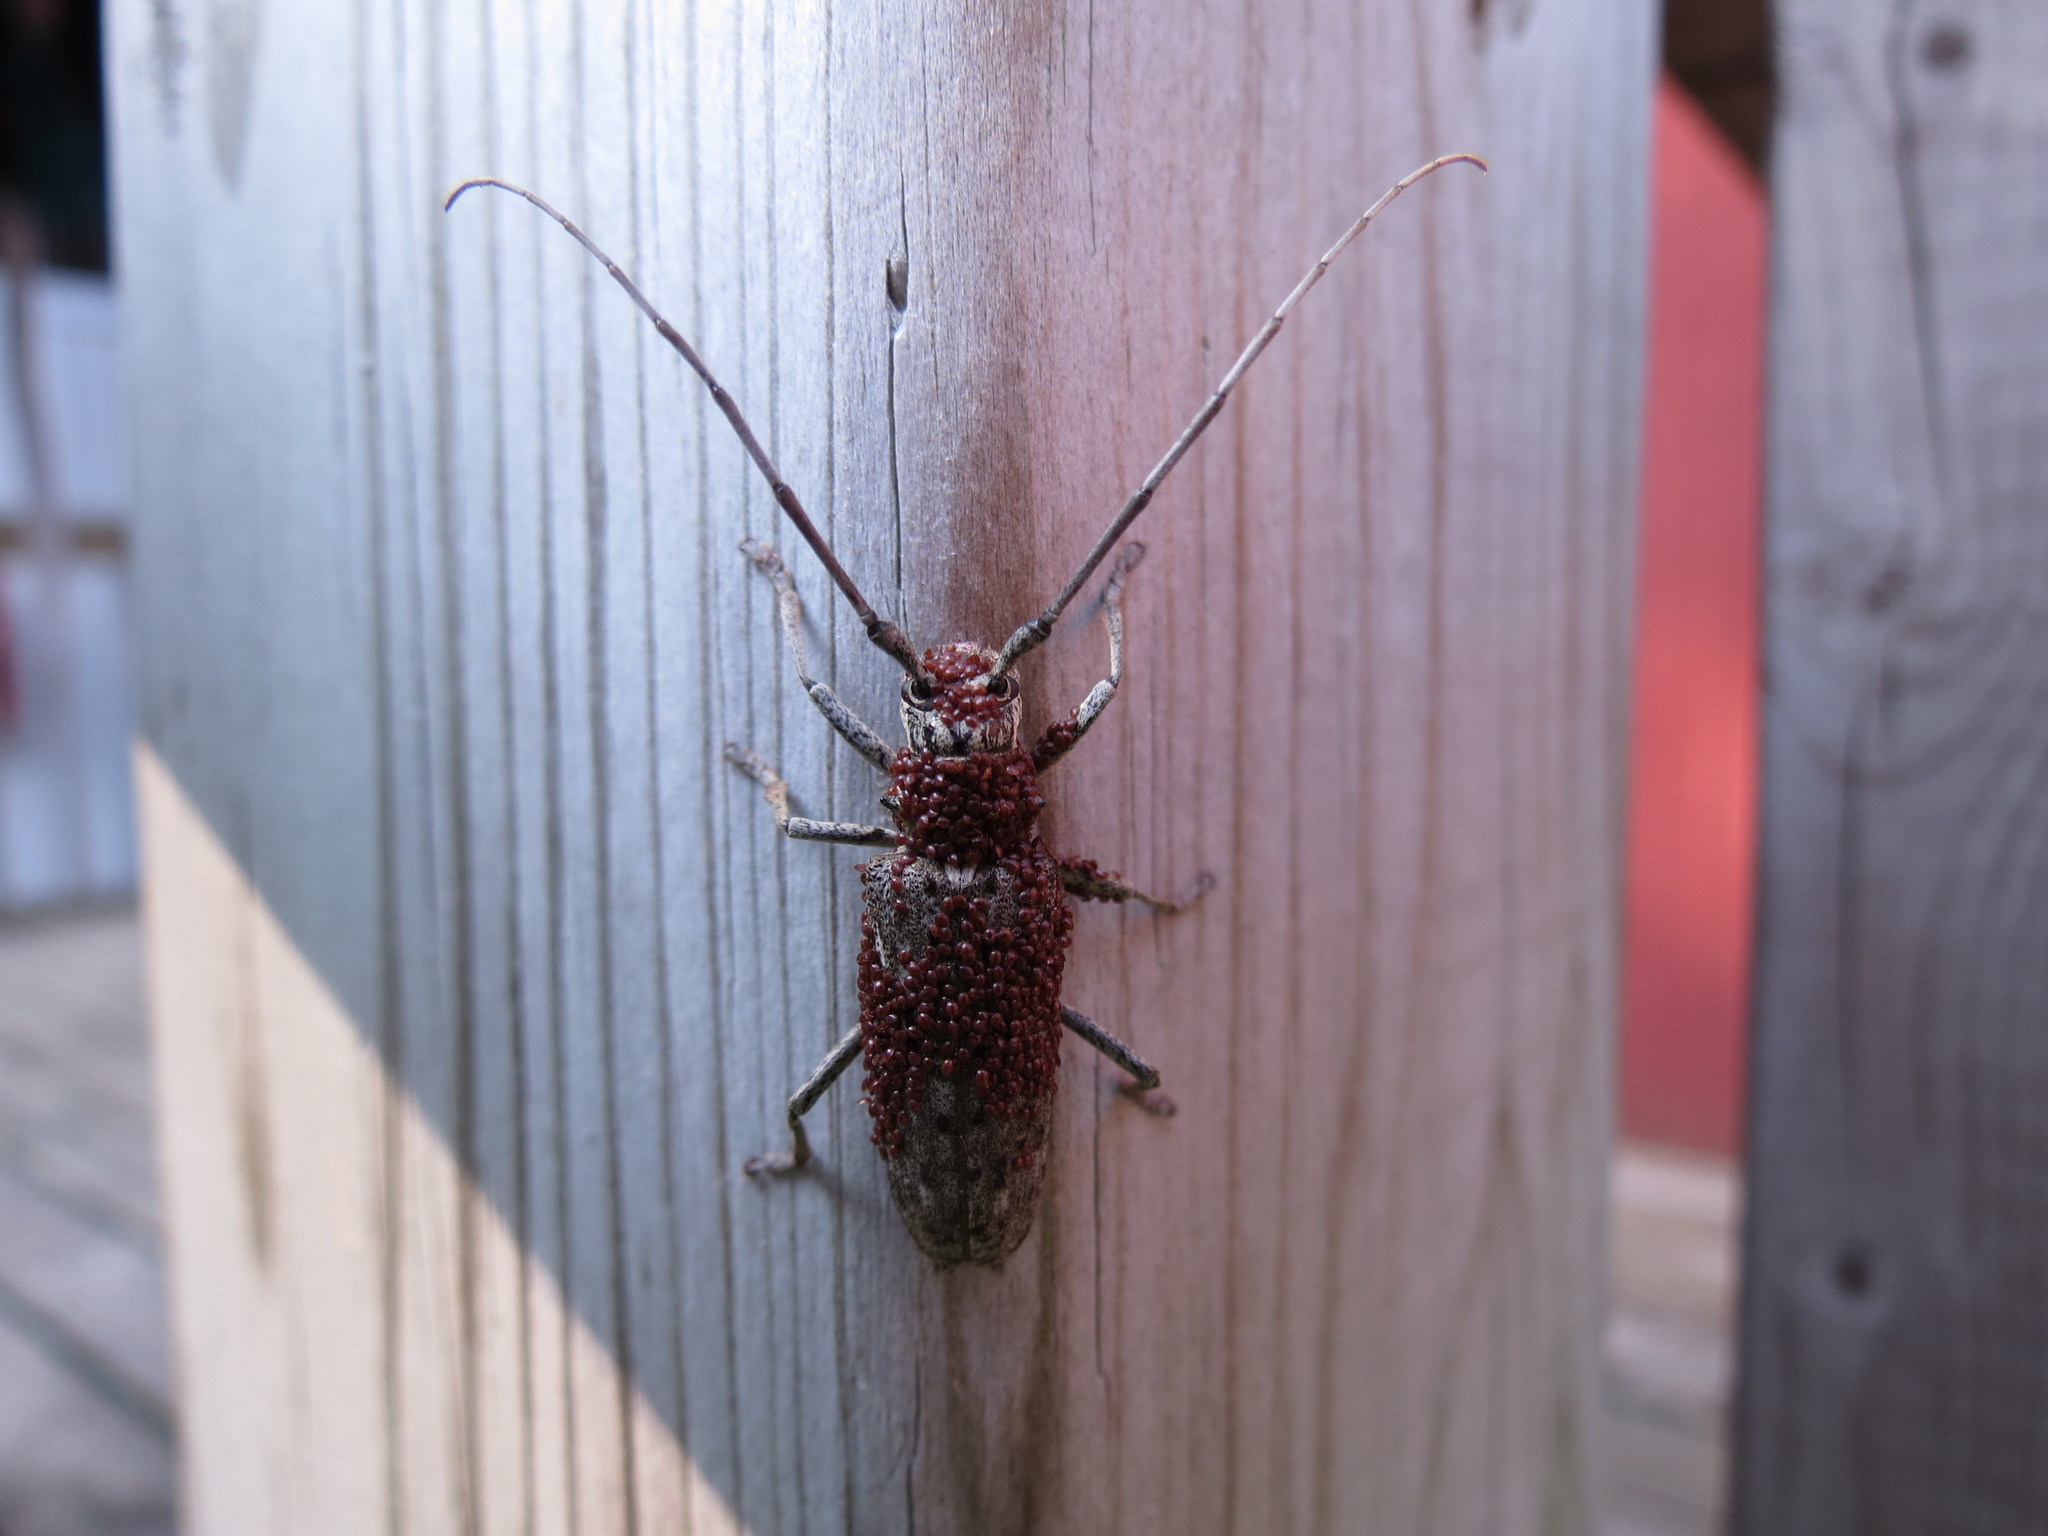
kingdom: Animalia
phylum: Arthropoda
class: Insecta
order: Coleoptera
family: Cerambycidae
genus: Monochamus
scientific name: Monochamus notatus
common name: Northeastern pine sawyer beetle
